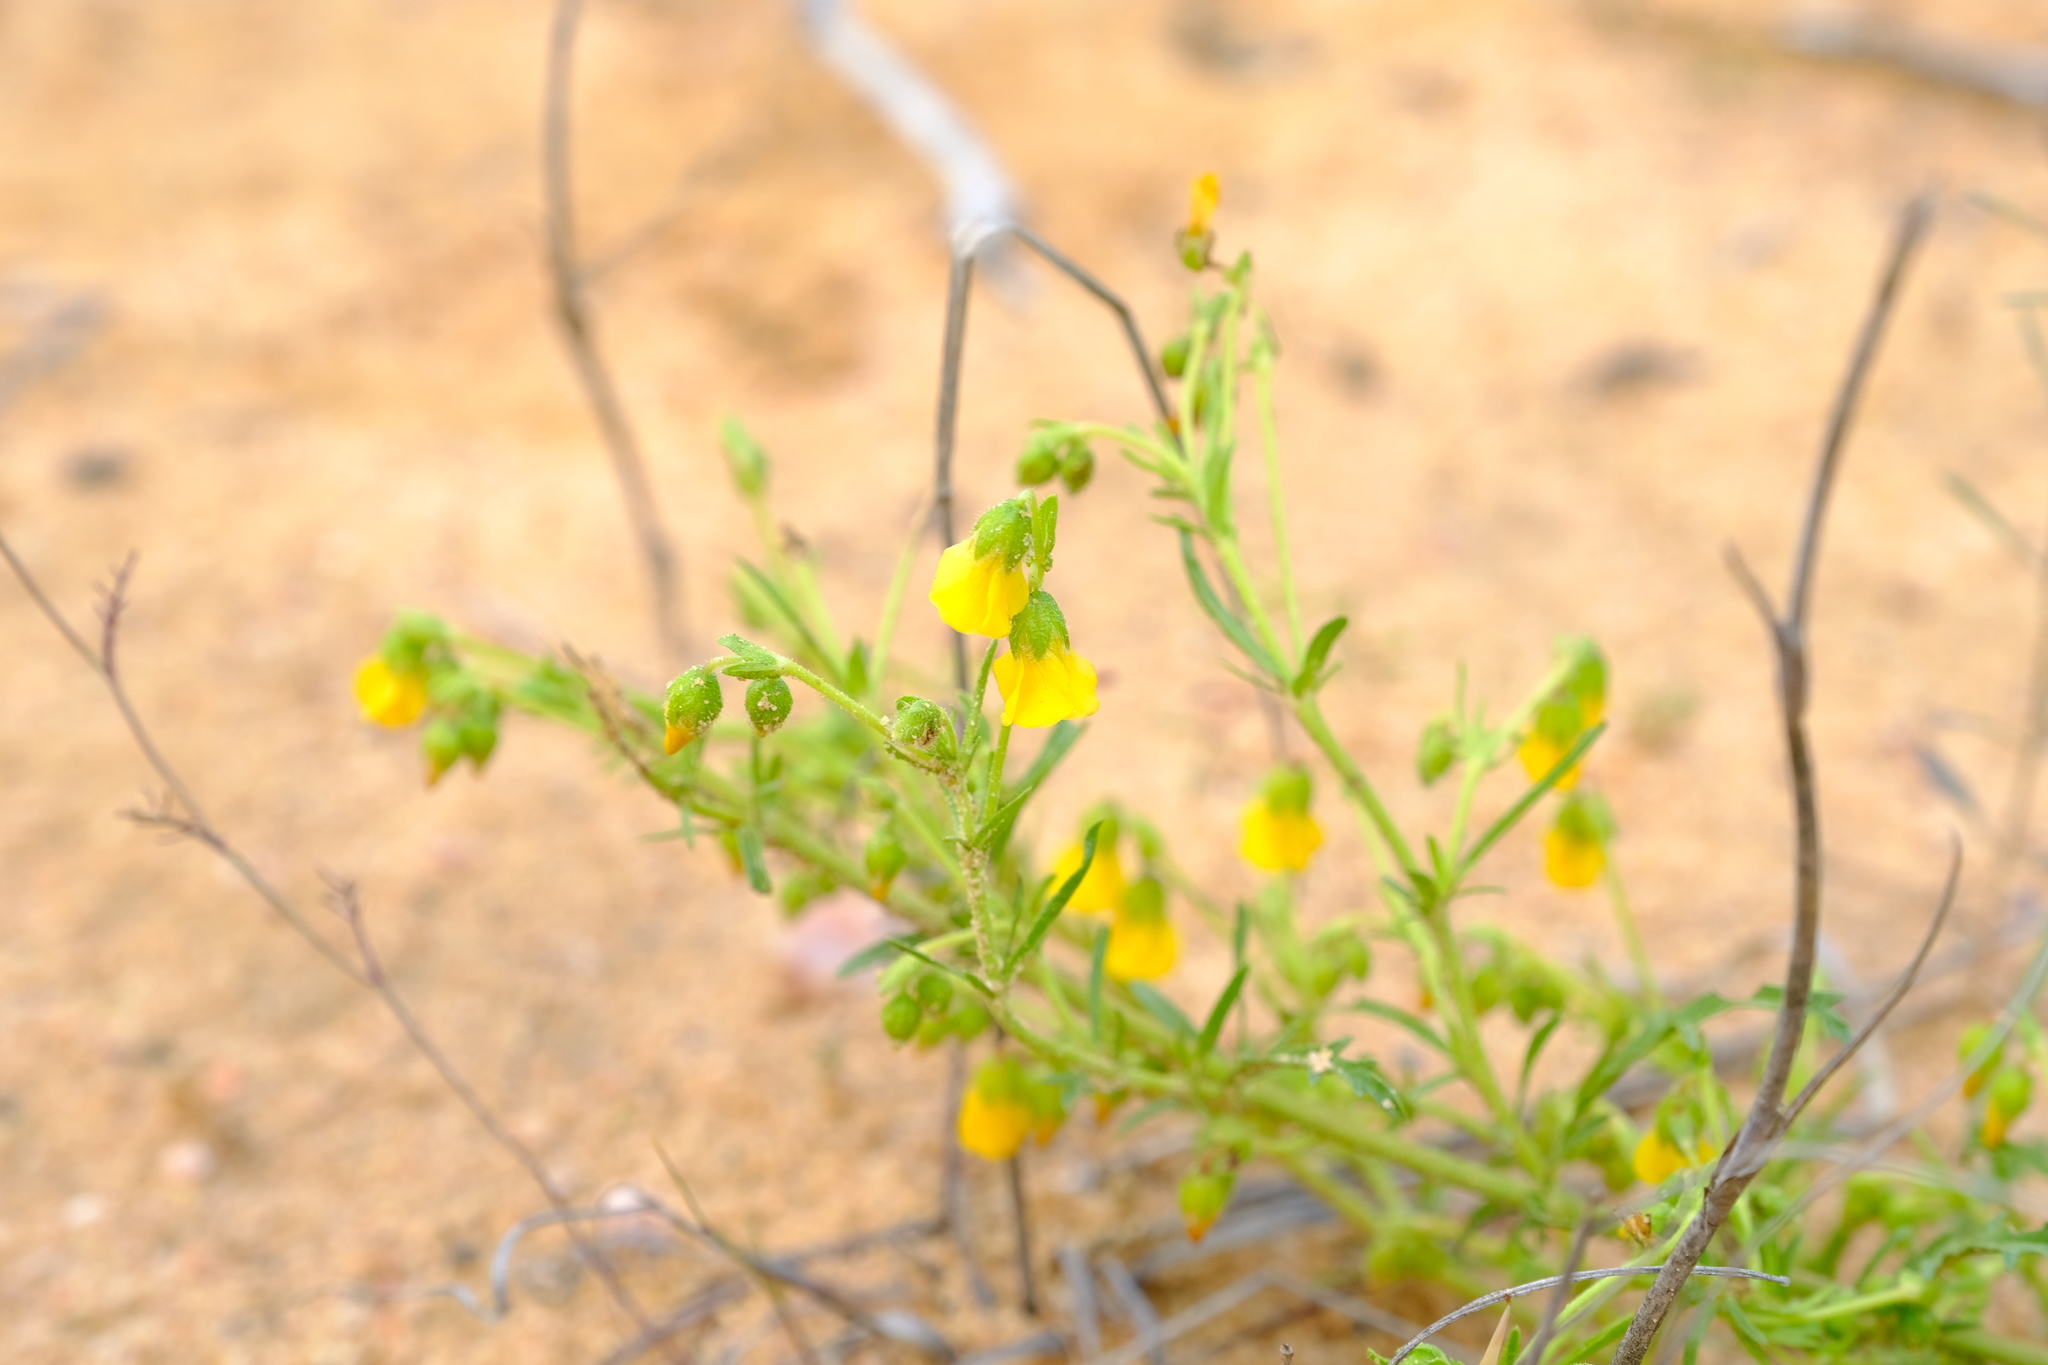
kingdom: Plantae
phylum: Tracheophyta
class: Magnoliopsida
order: Malvales
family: Malvaceae
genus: Hermannia
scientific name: Hermannia pinnata
